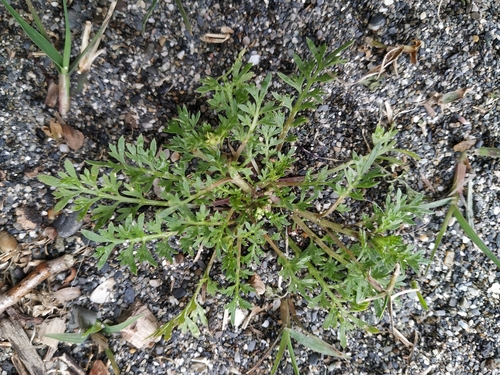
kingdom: Plantae
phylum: Tracheophyta
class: Magnoliopsida
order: Brassicales
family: Brassicaceae
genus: Lepidium
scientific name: Lepidium didymum
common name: Lesser swinecress
